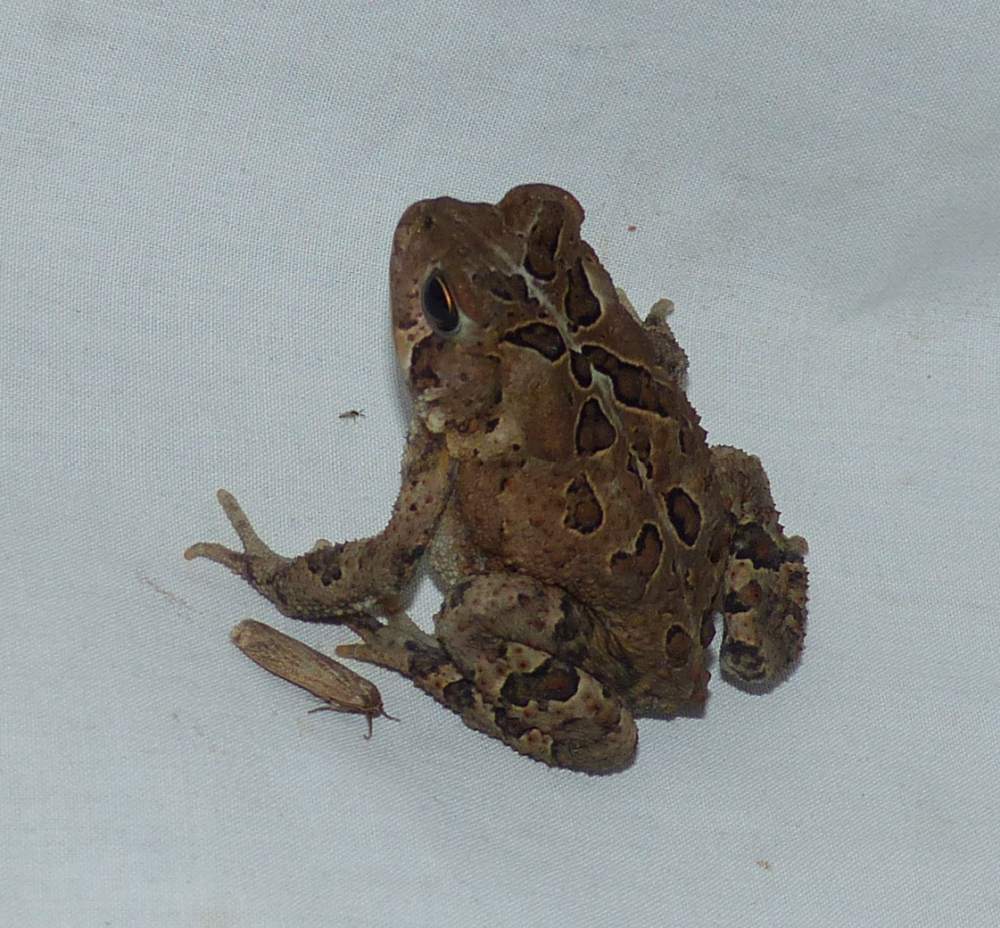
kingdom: Animalia
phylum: Chordata
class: Amphibia
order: Anura
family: Bufonidae
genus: Anaxyrus
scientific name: Anaxyrus americanus
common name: American toad
